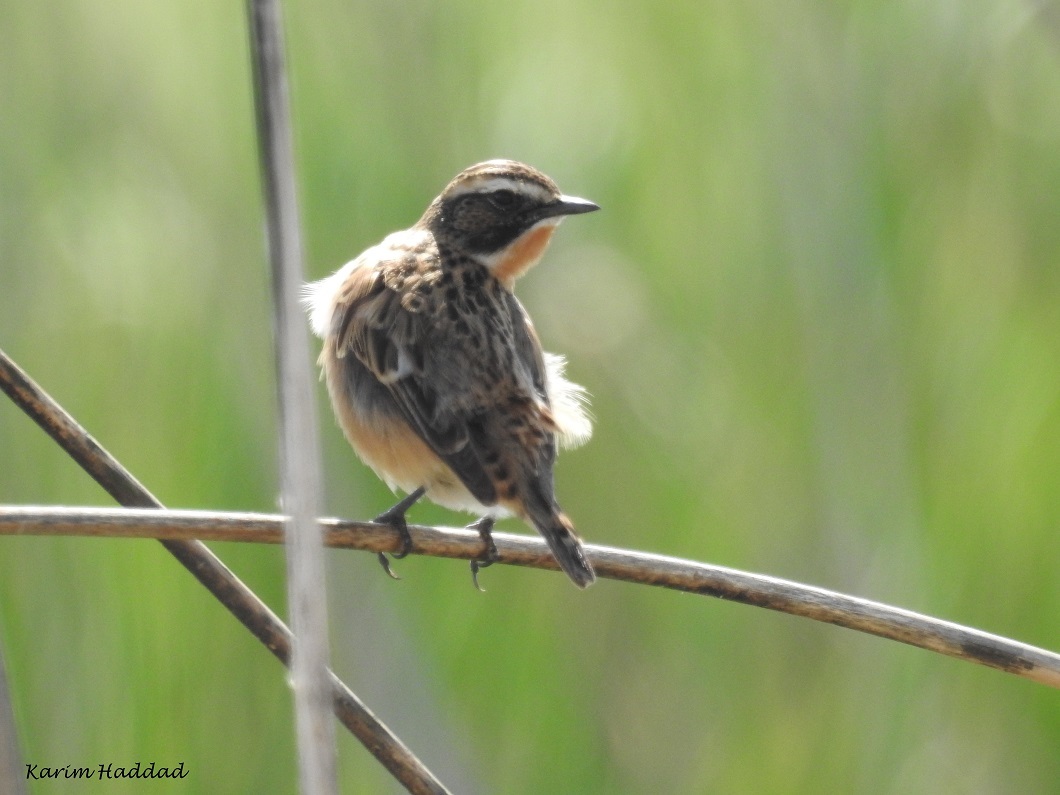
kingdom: Animalia
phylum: Chordata
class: Aves
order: Passeriformes
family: Muscicapidae
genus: Saxicola
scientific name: Saxicola rubetra
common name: Whinchat
